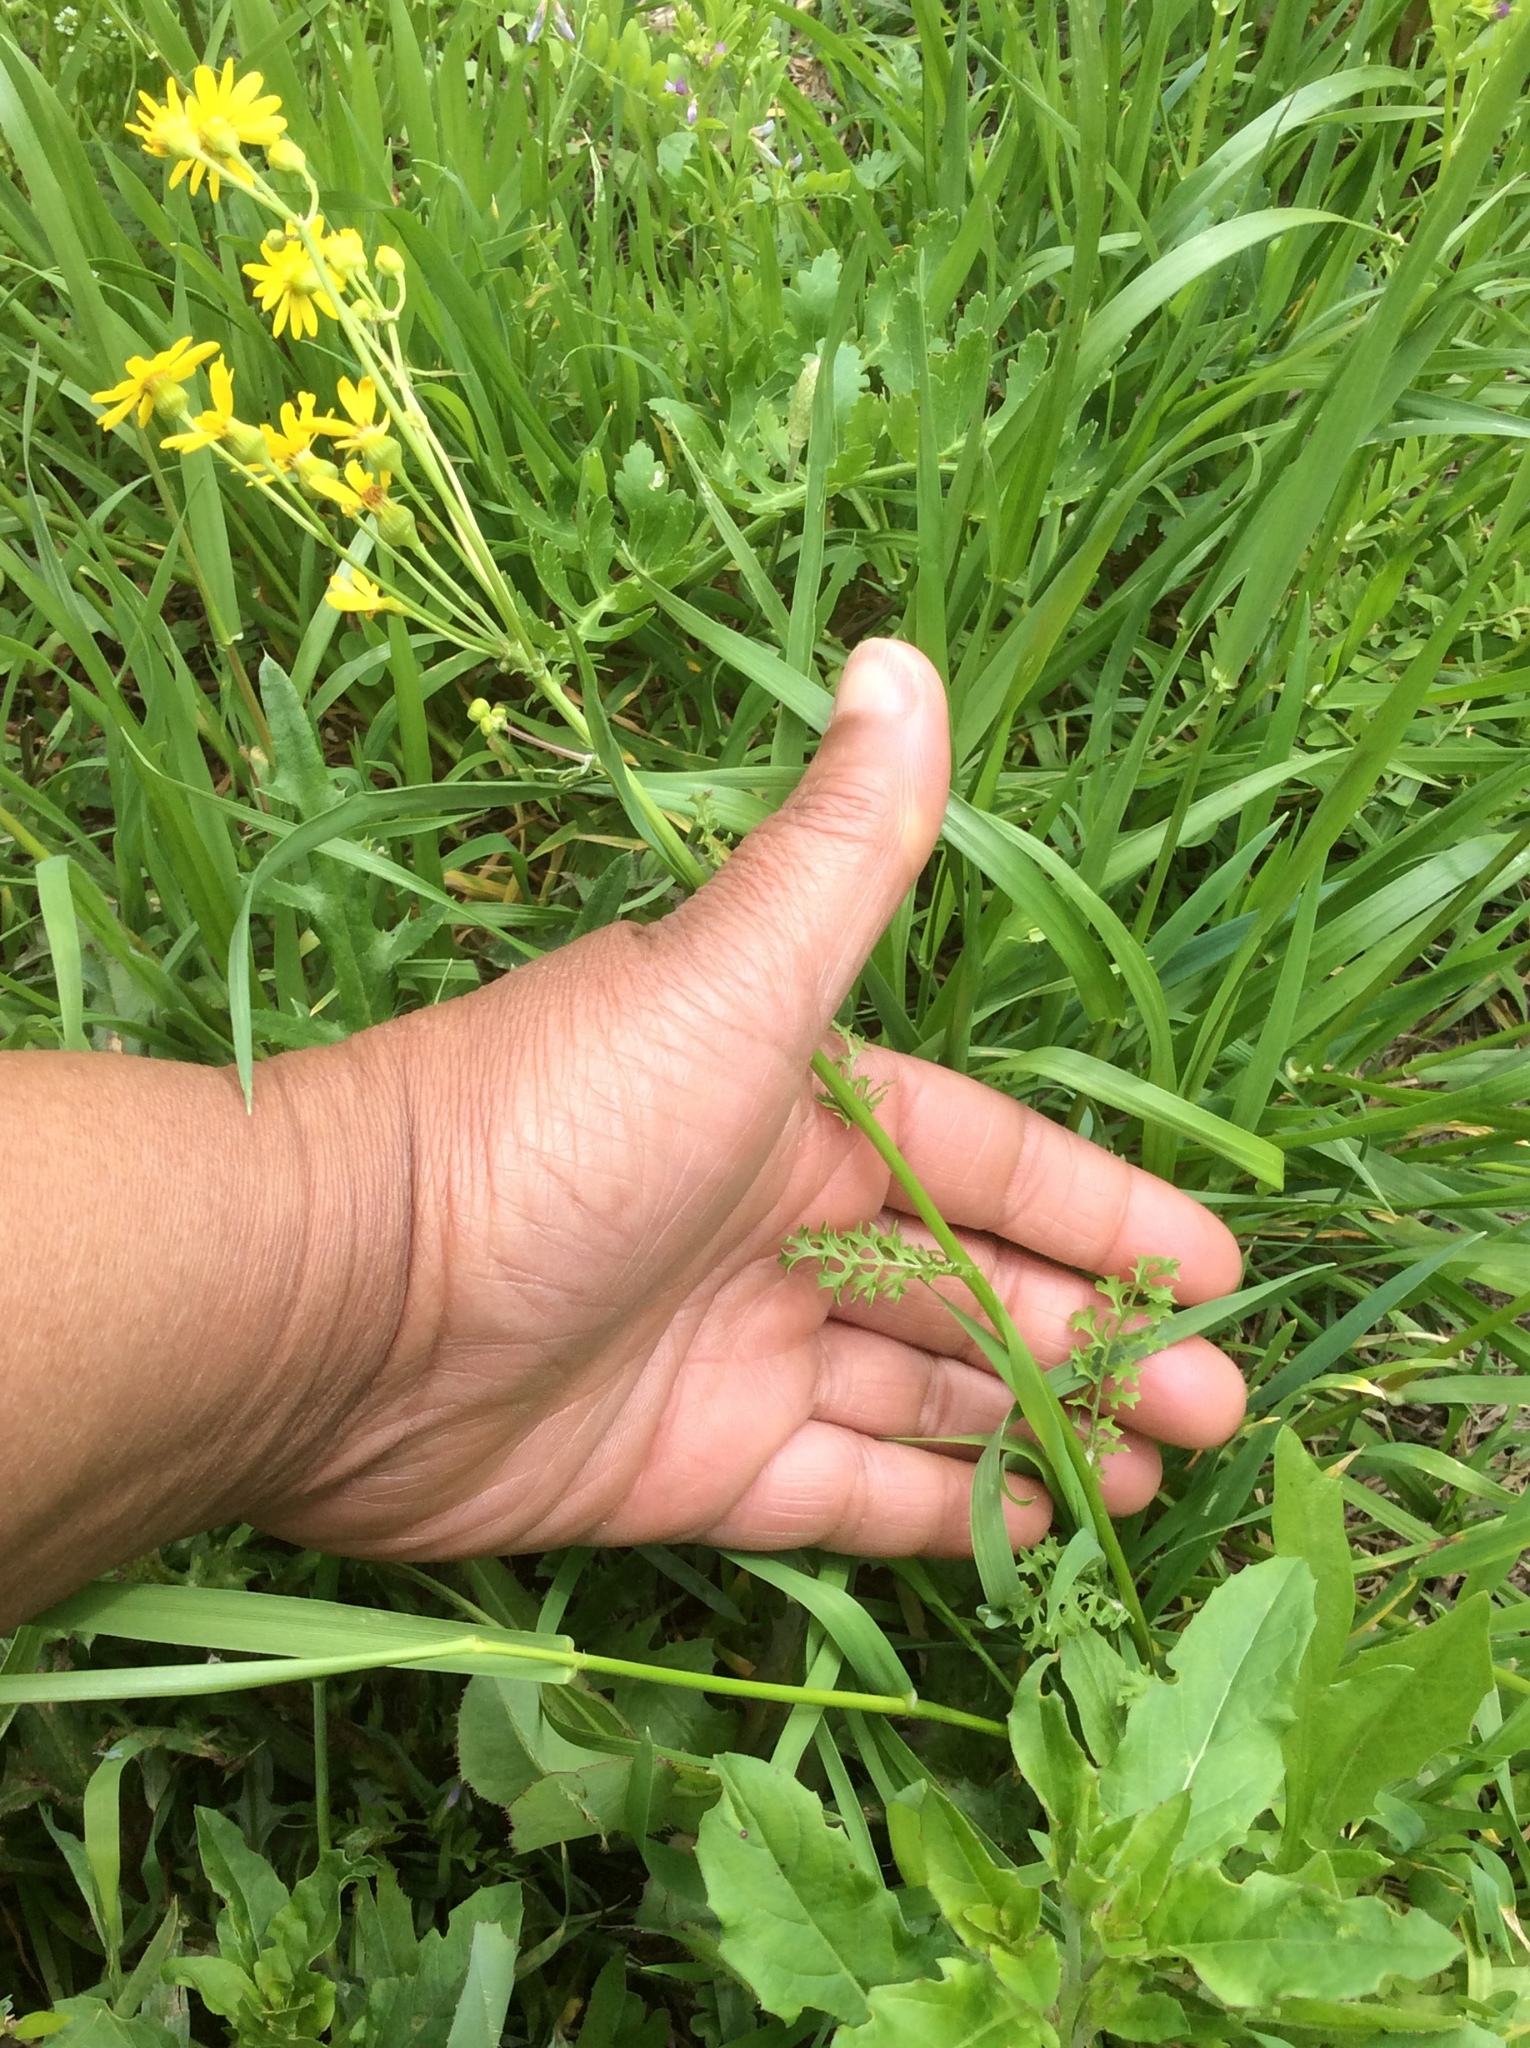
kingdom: Plantae
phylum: Tracheophyta
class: Magnoliopsida
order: Asterales
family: Asteraceae
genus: Packera
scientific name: Packera tampicana
